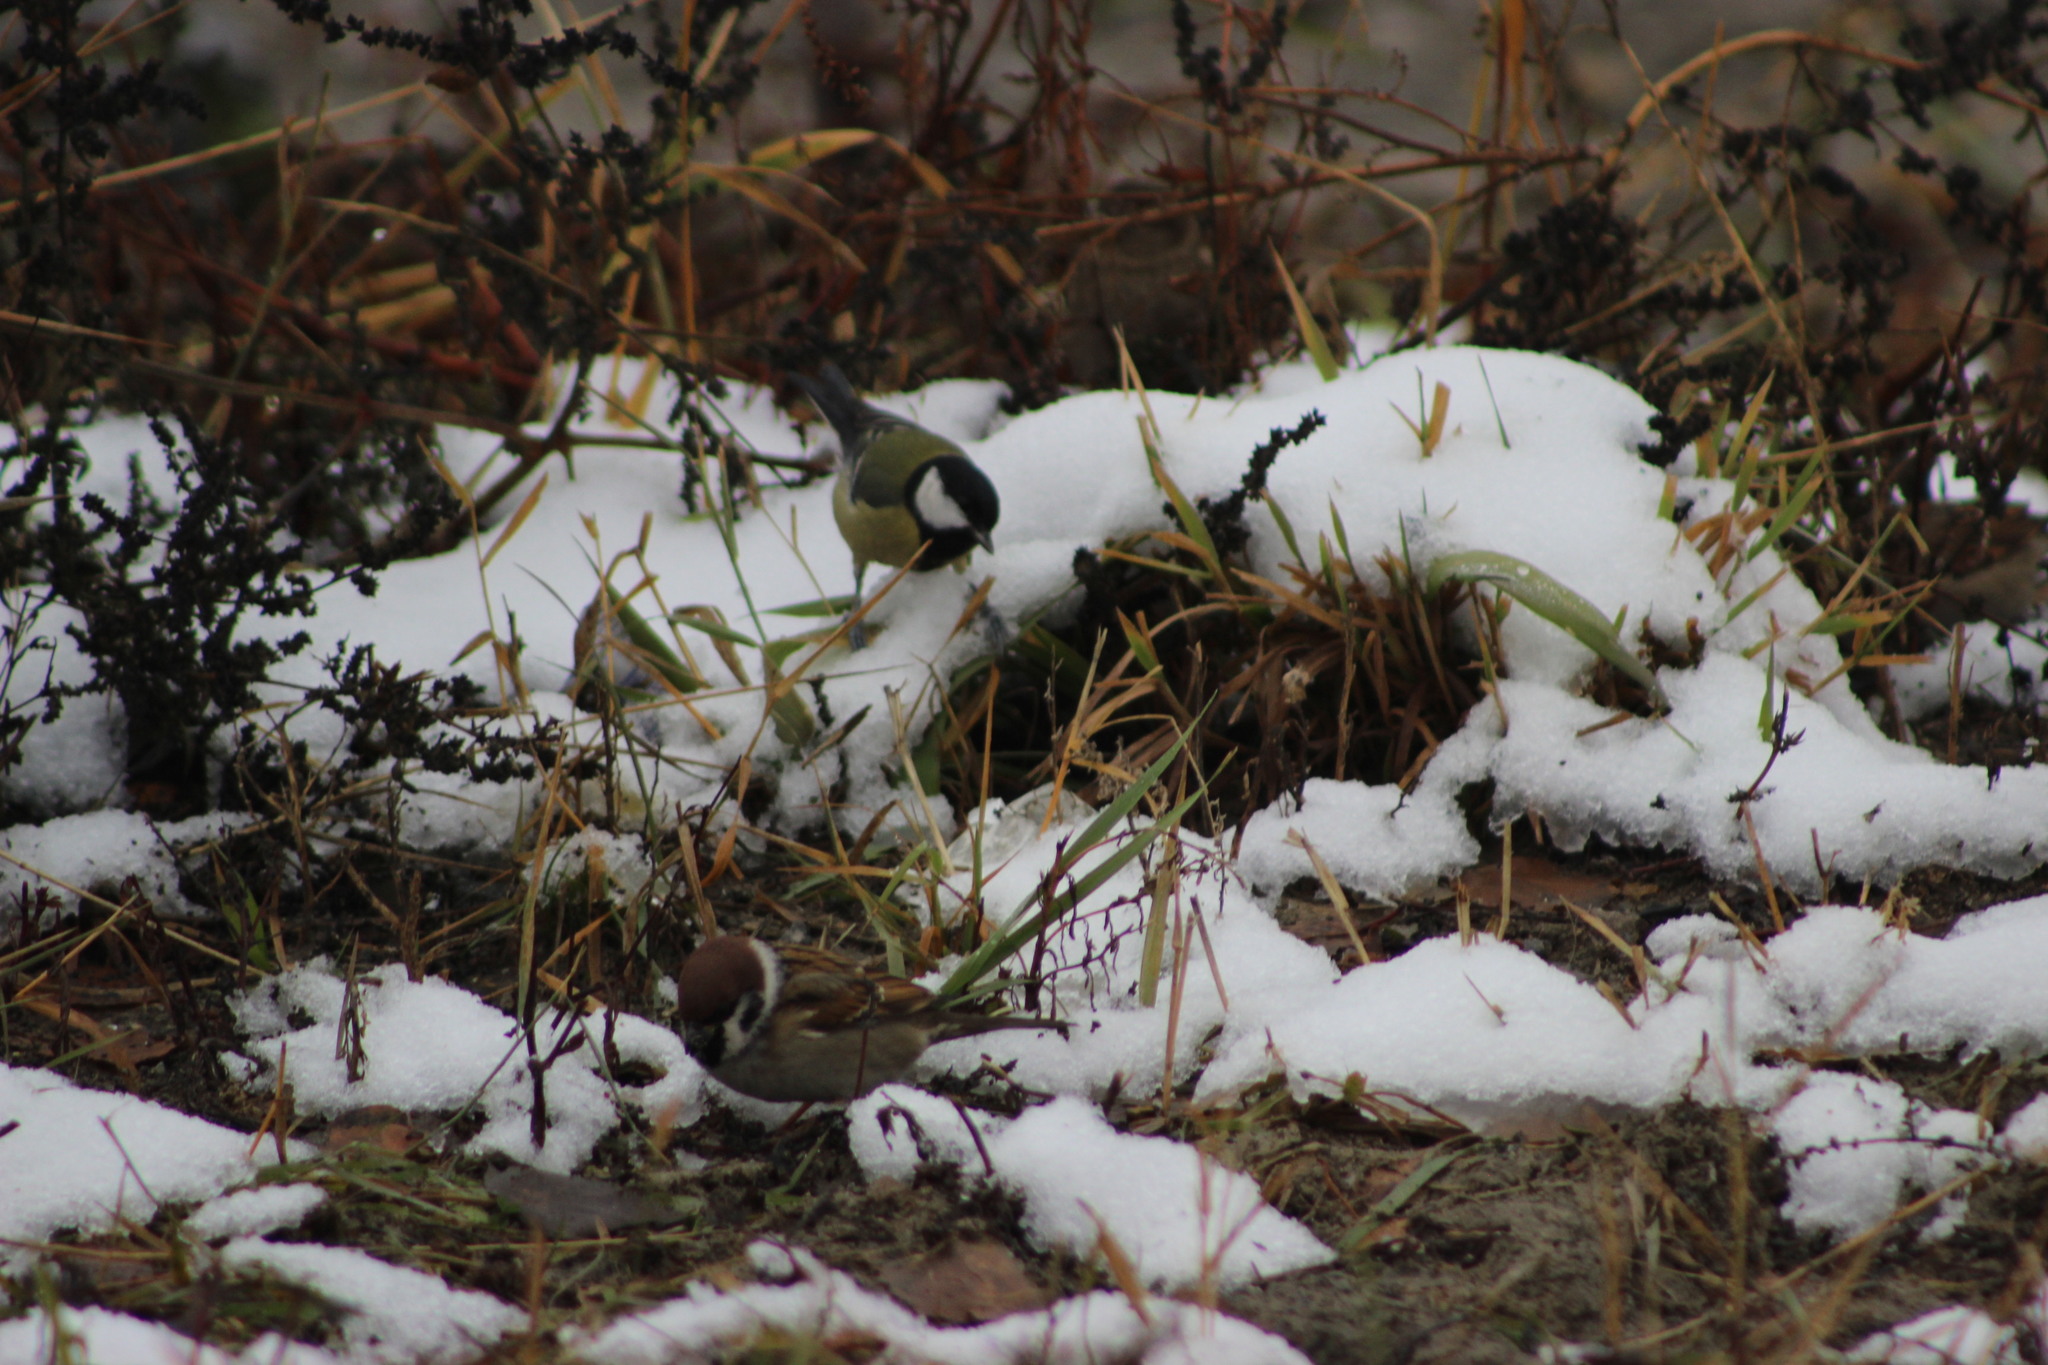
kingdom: Animalia
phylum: Chordata
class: Aves
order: Passeriformes
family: Passeridae
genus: Passer
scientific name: Passer montanus
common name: Eurasian tree sparrow
